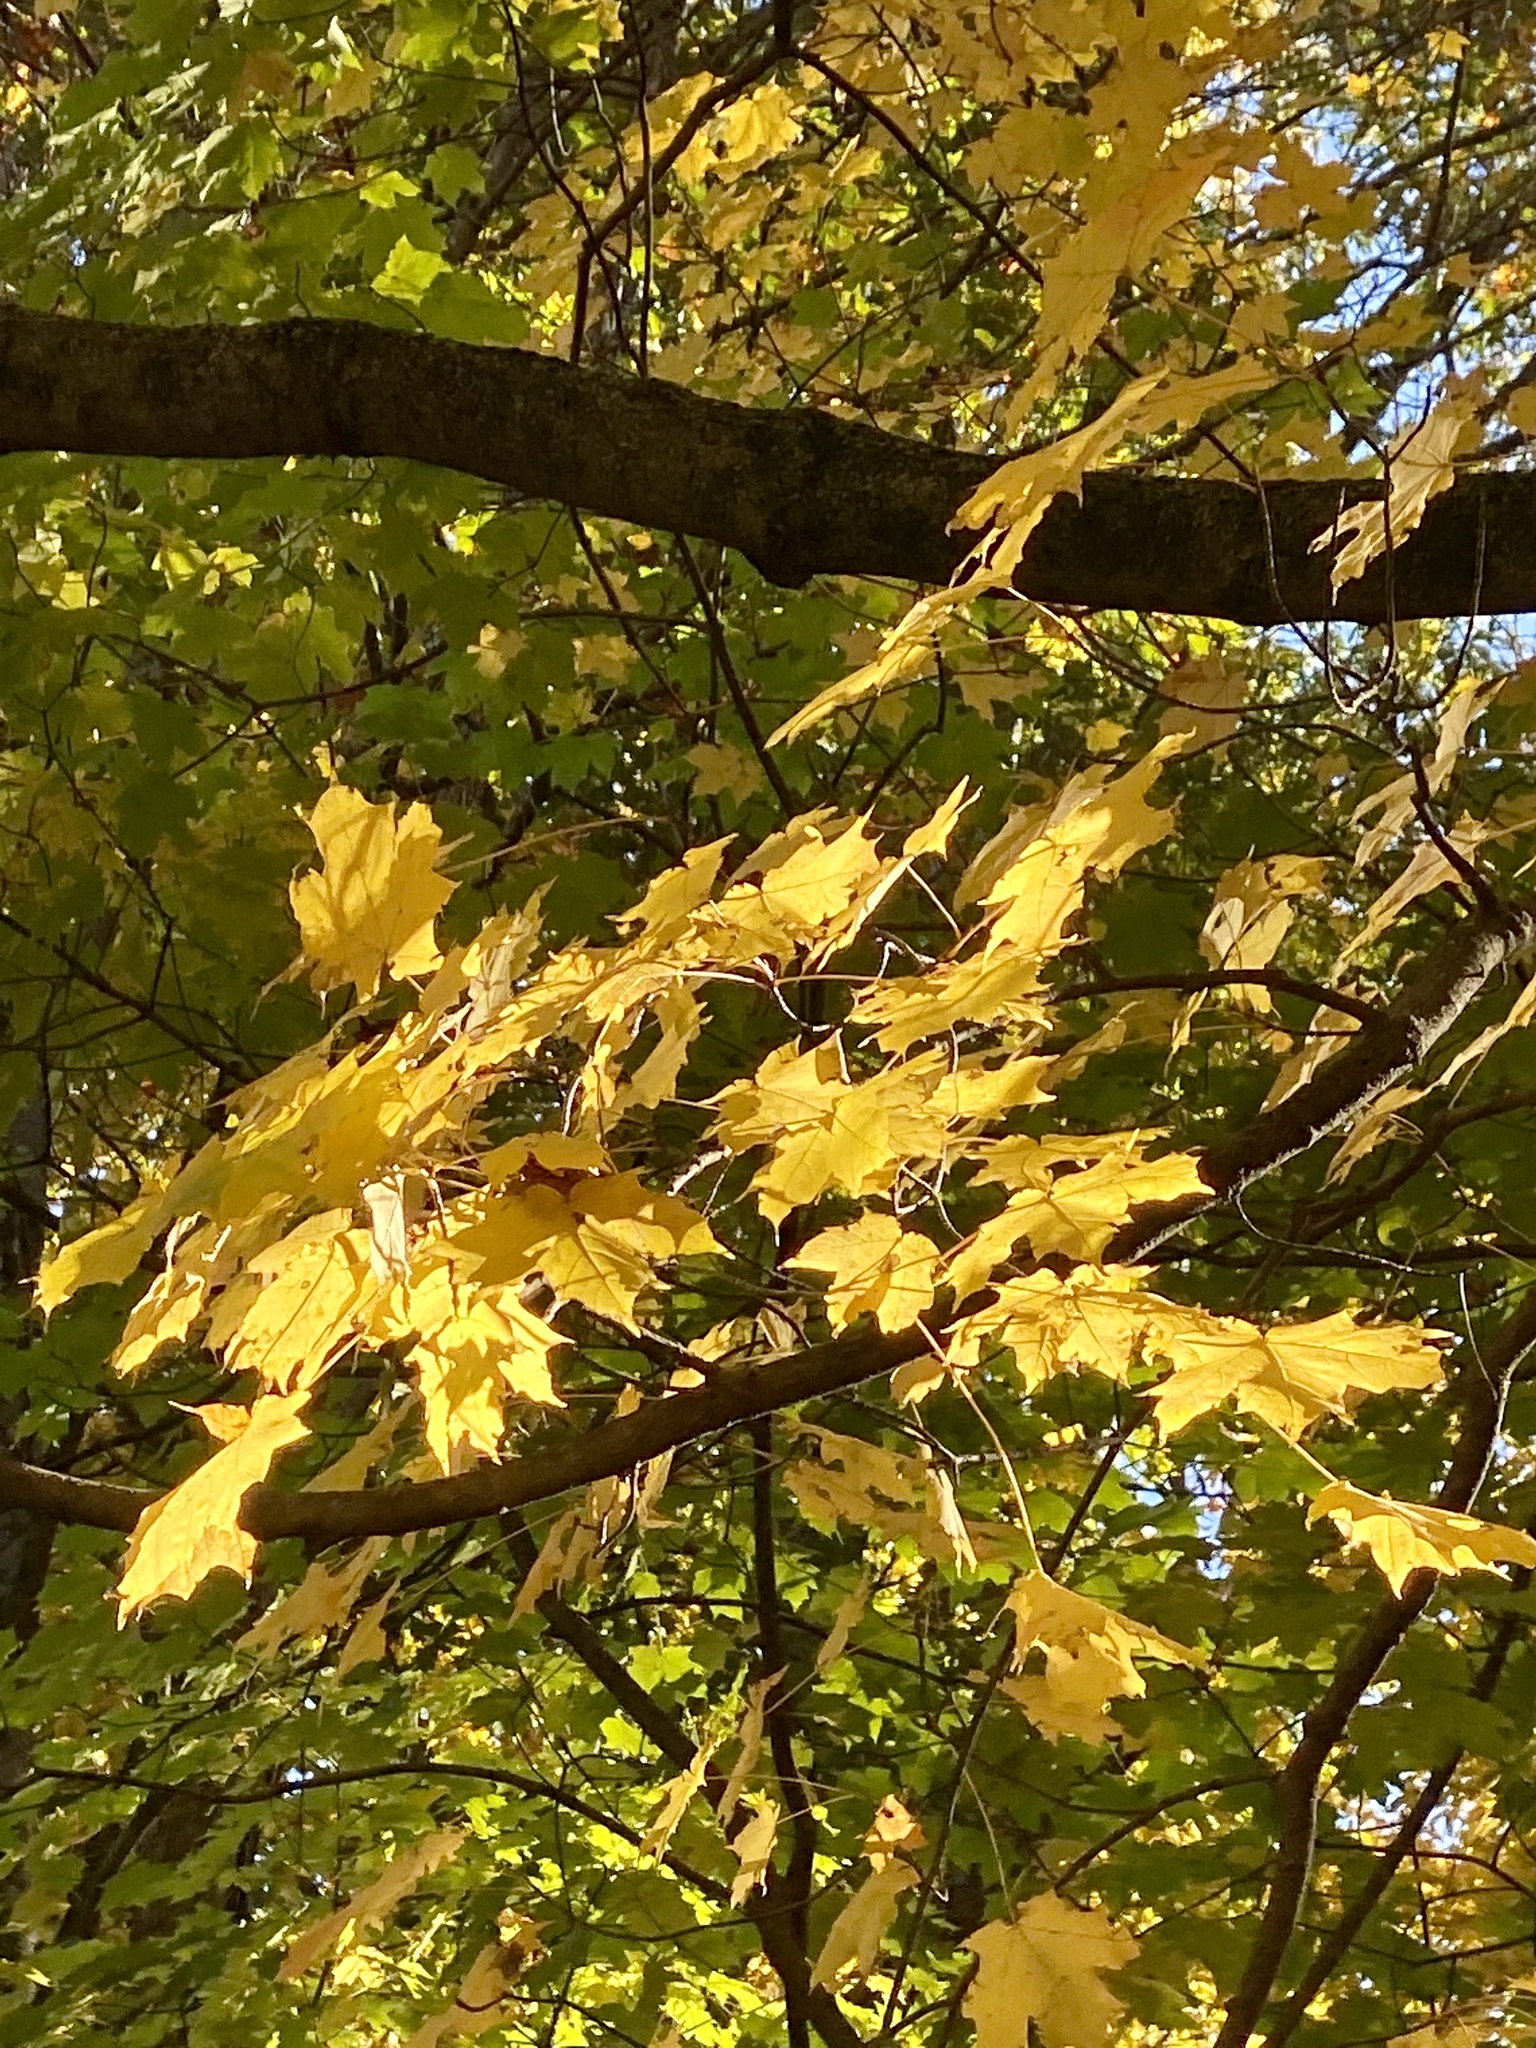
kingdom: Plantae
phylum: Tracheophyta
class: Magnoliopsida
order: Sapindales
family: Sapindaceae
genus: Acer
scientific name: Acer saccharum
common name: Sugar maple
